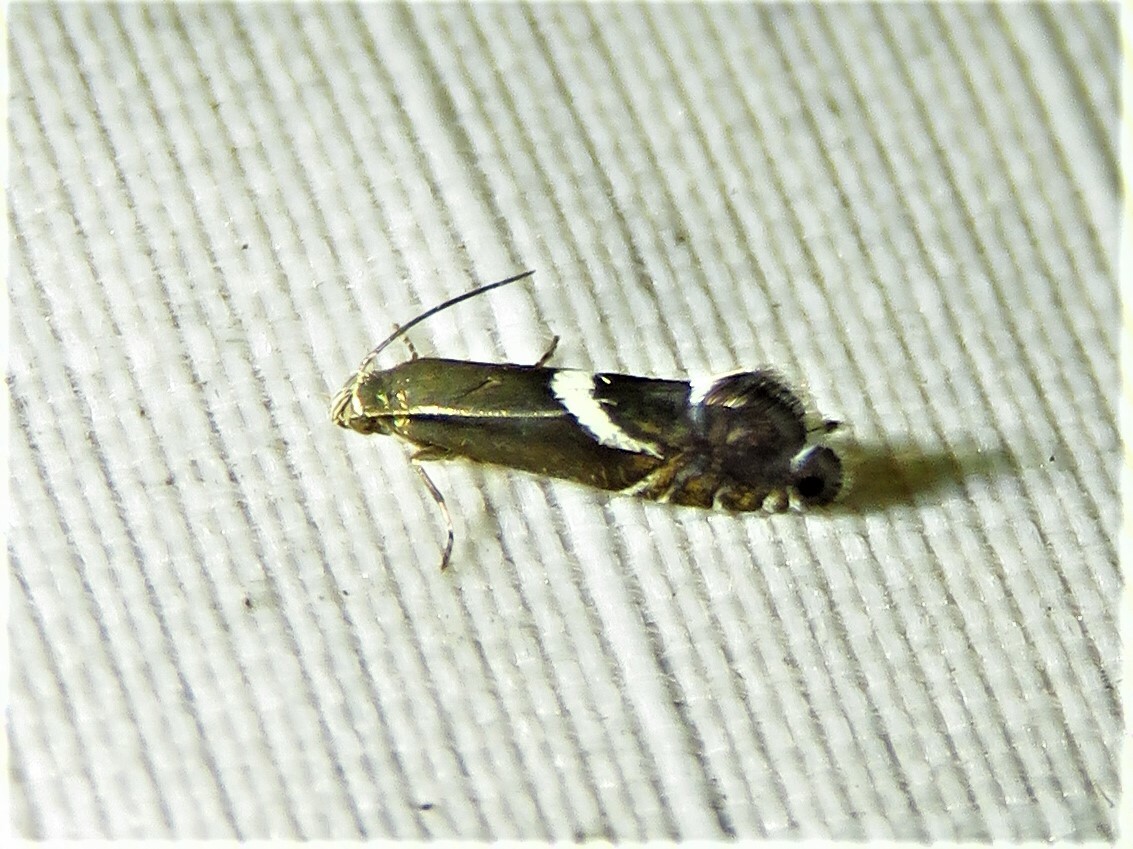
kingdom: Animalia
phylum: Arthropoda
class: Insecta
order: Lepidoptera
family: Glyphipterigidae
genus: Glyphipterix
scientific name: Glyphipterix Diploschizia impigritella
